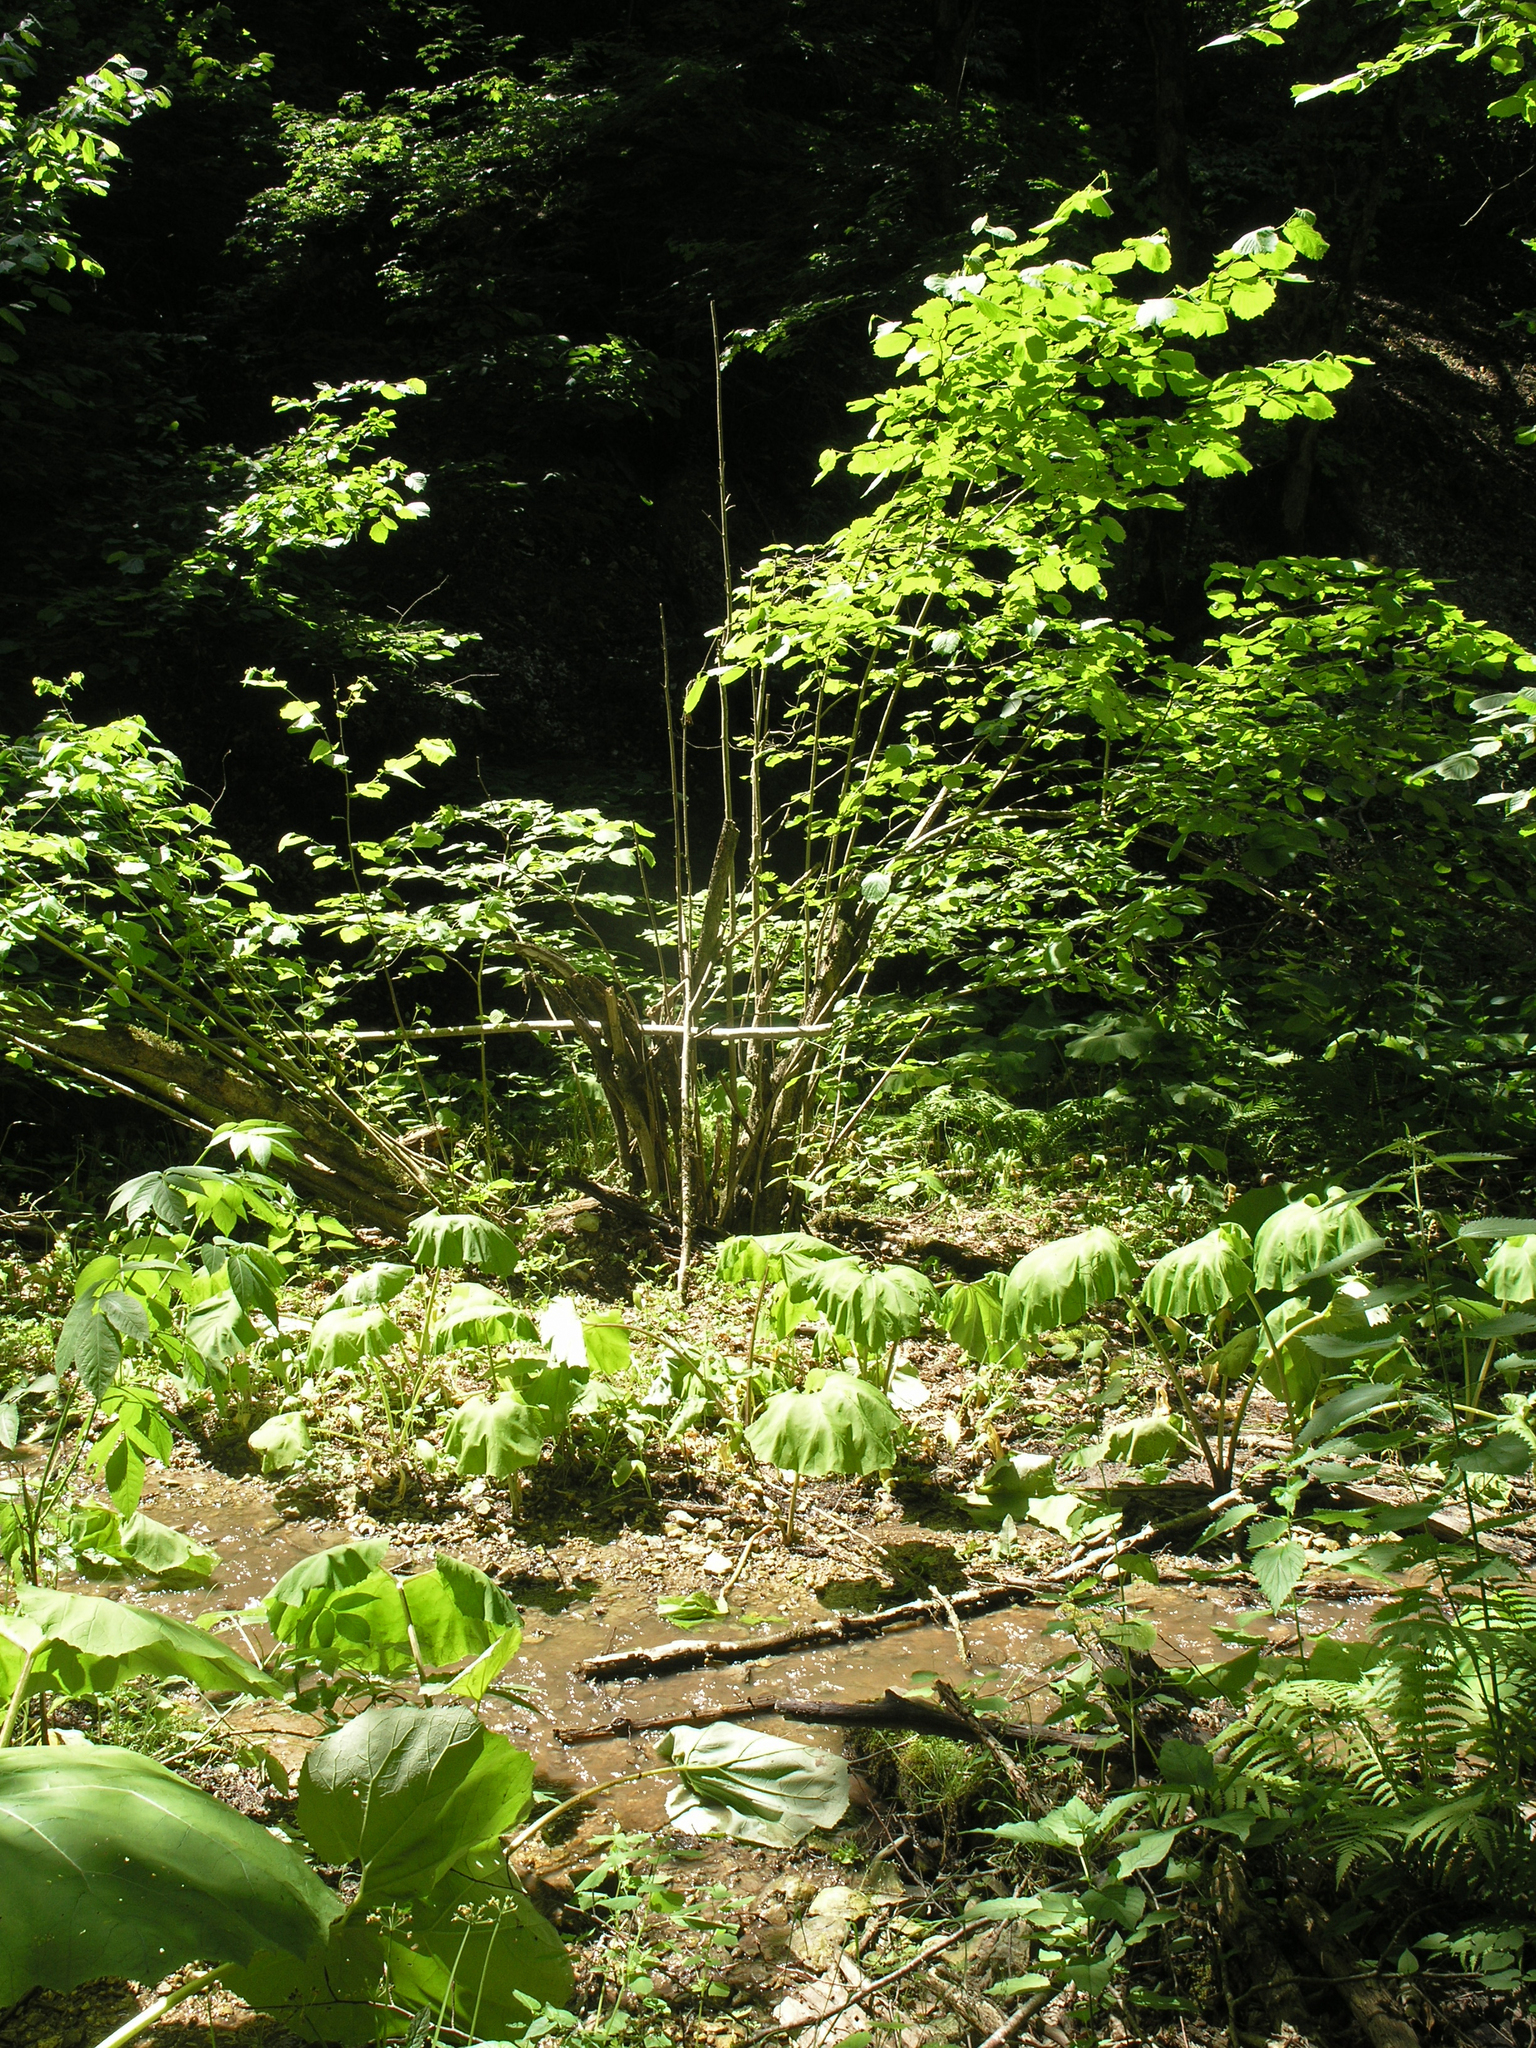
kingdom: Plantae
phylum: Tracheophyta
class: Magnoliopsida
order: Asterales
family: Asteraceae
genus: Petasites
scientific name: Petasites hybridus
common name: Butterbur
